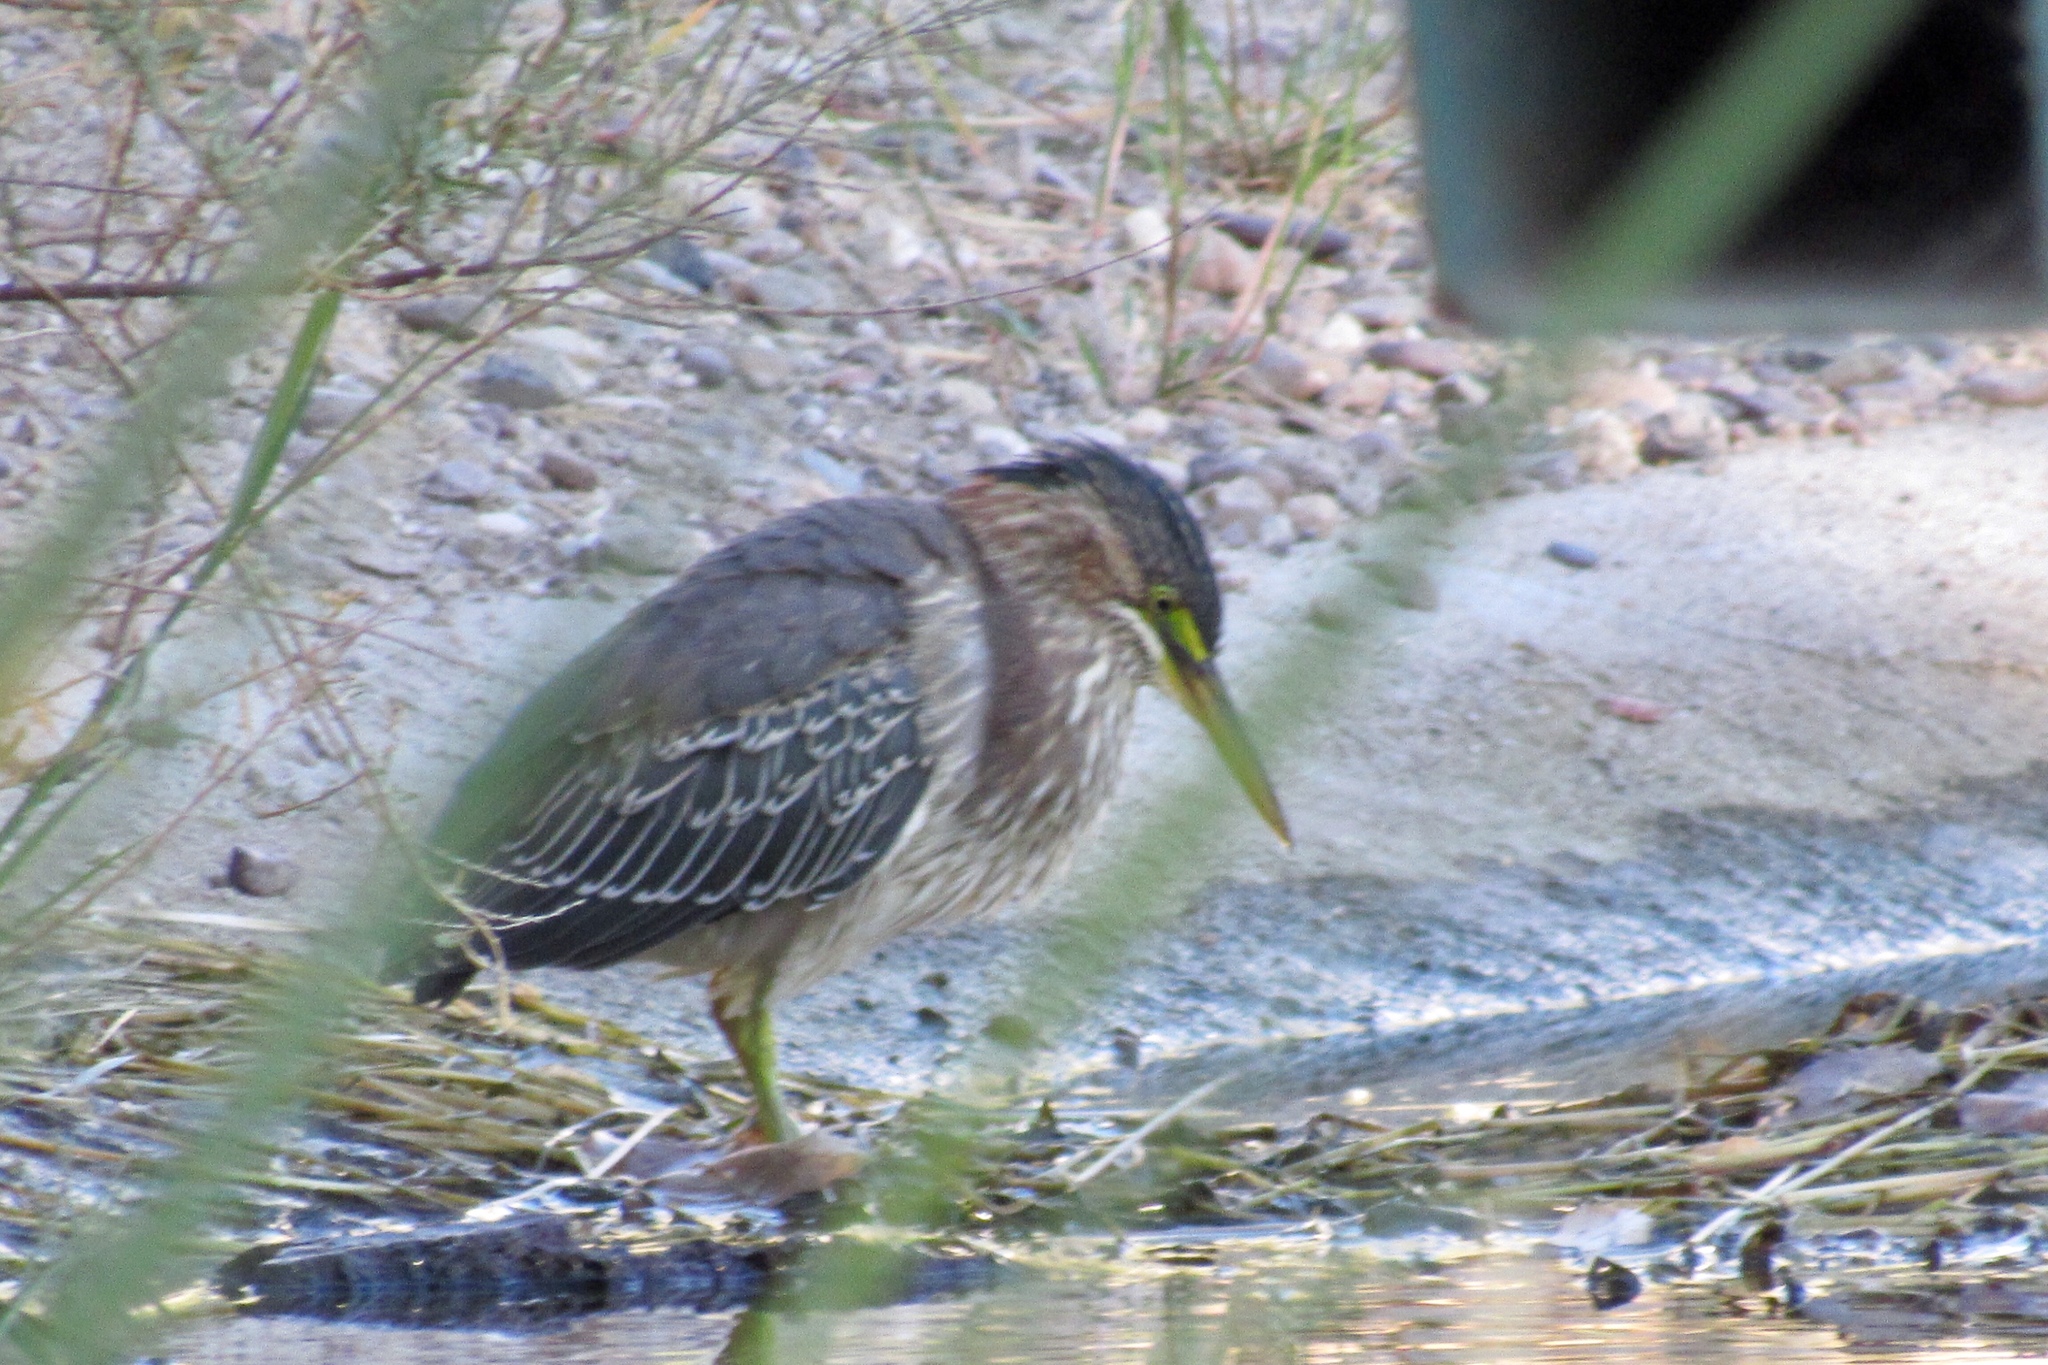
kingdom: Animalia
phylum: Chordata
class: Aves
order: Pelecaniformes
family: Ardeidae
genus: Butorides
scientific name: Butorides virescens
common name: Green heron
